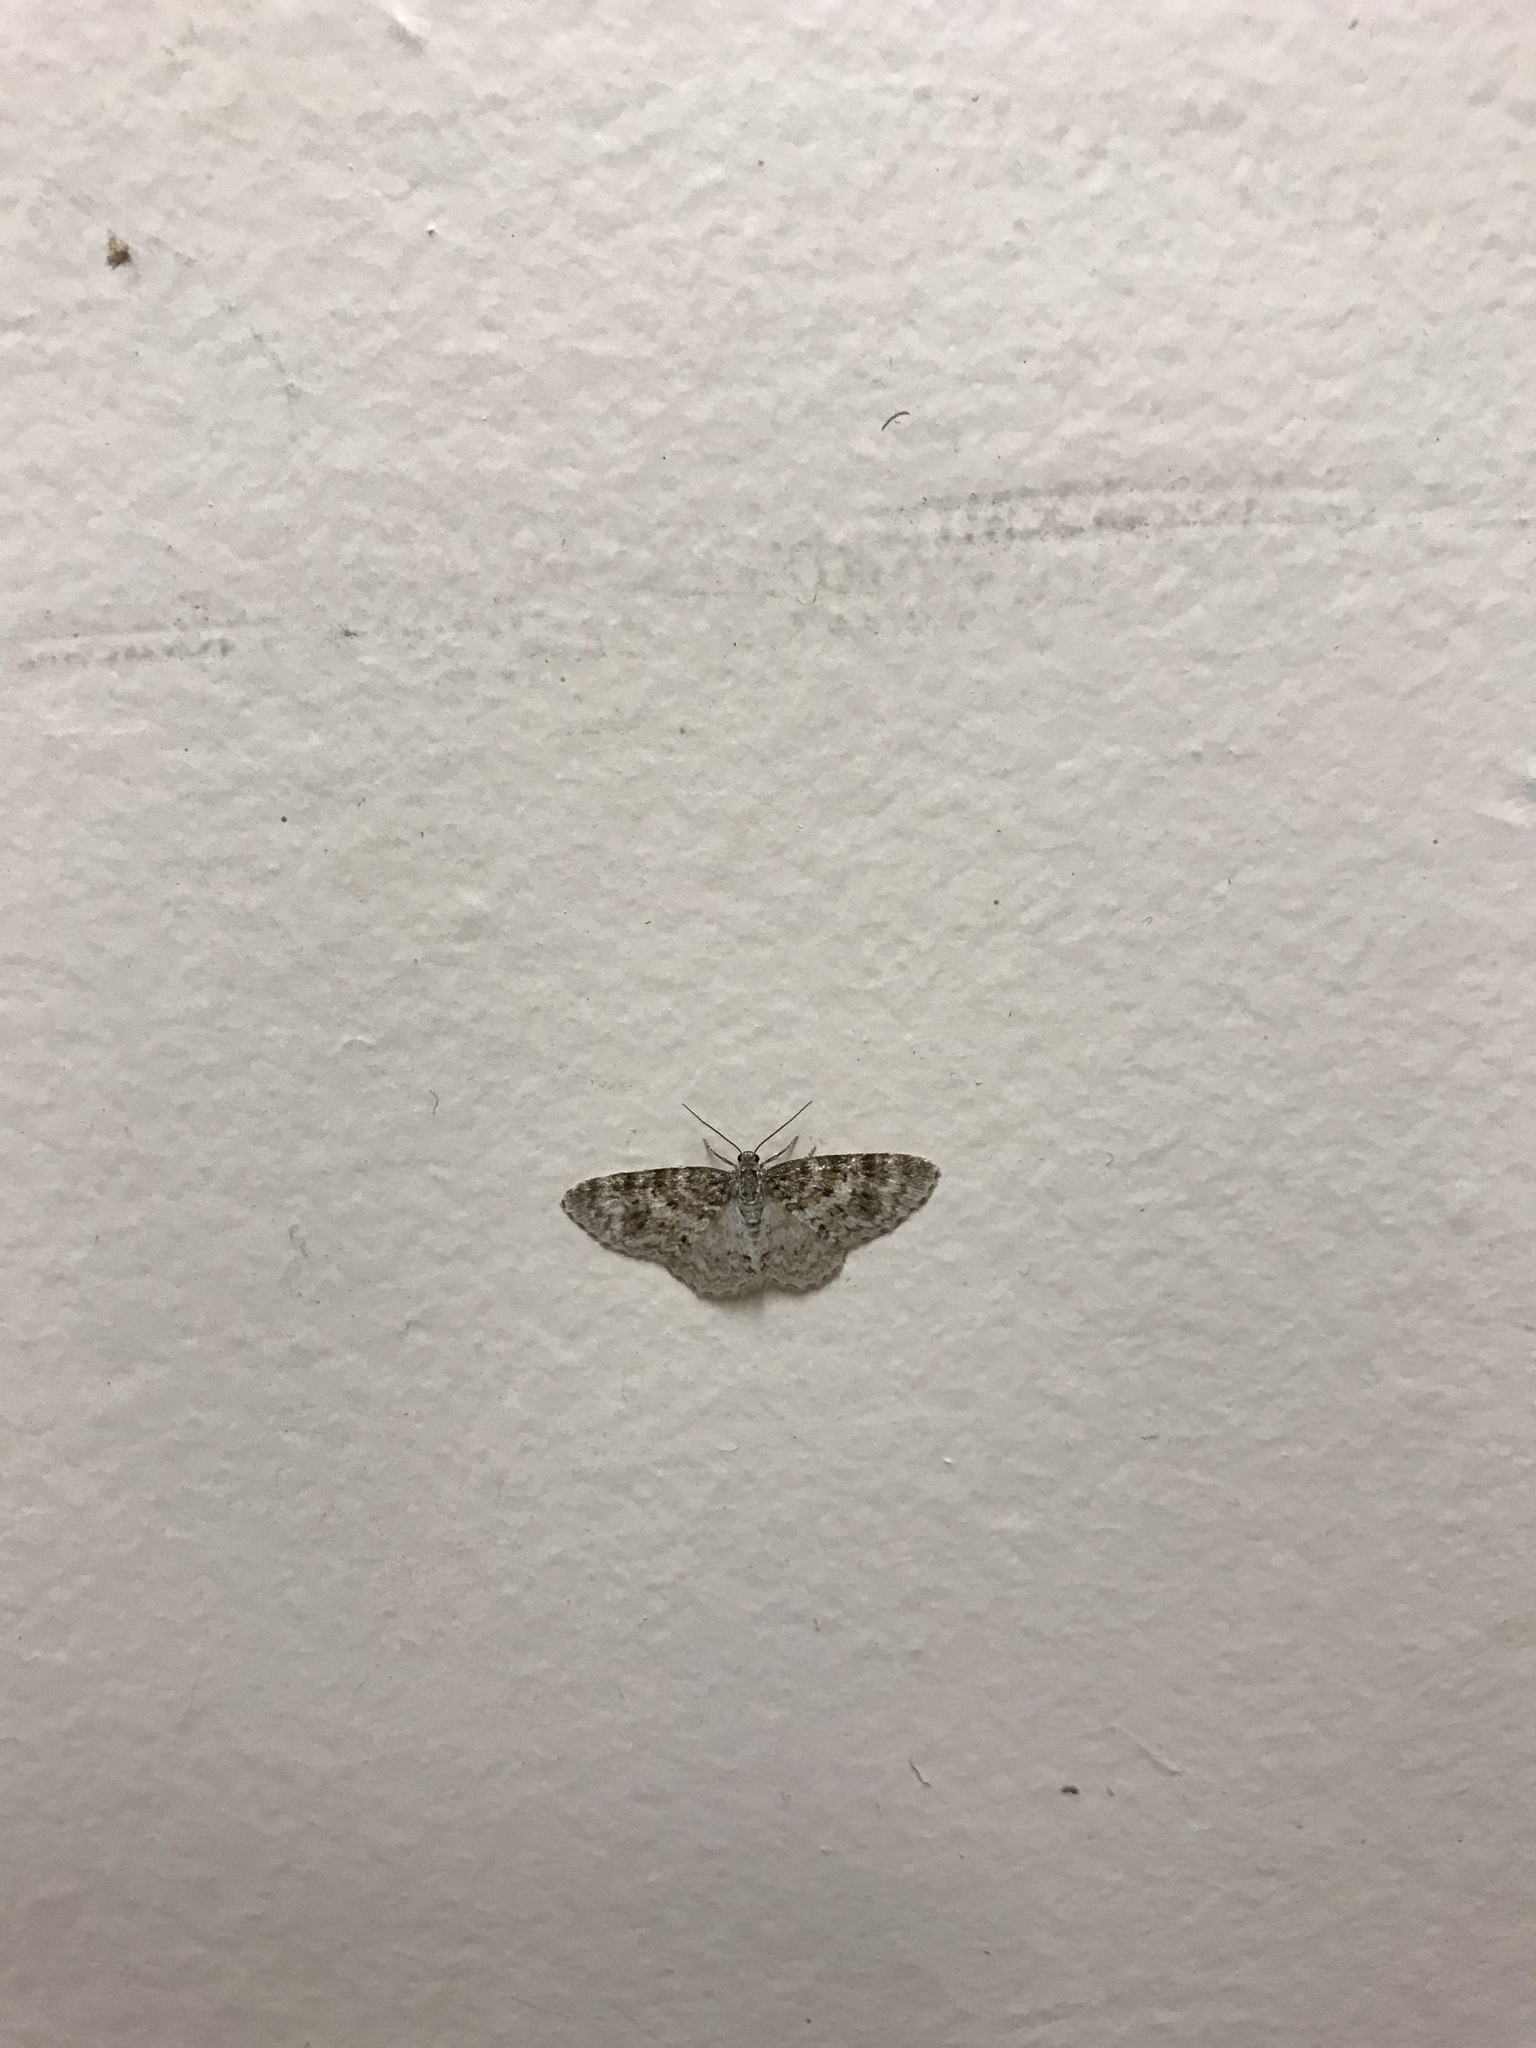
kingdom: Animalia
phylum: Arthropoda
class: Insecta
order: Lepidoptera
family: Geometridae
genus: Hydrelia
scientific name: Hydrelia inornata
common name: Unadorned carpet moth
